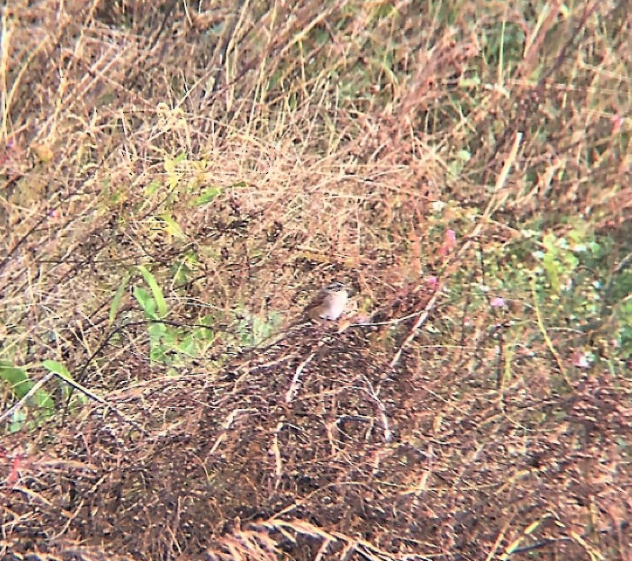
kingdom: Animalia
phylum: Chordata
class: Aves
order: Passeriformes
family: Passerellidae
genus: Melospiza
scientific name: Melospiza georgiana
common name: Swamp sparrow
